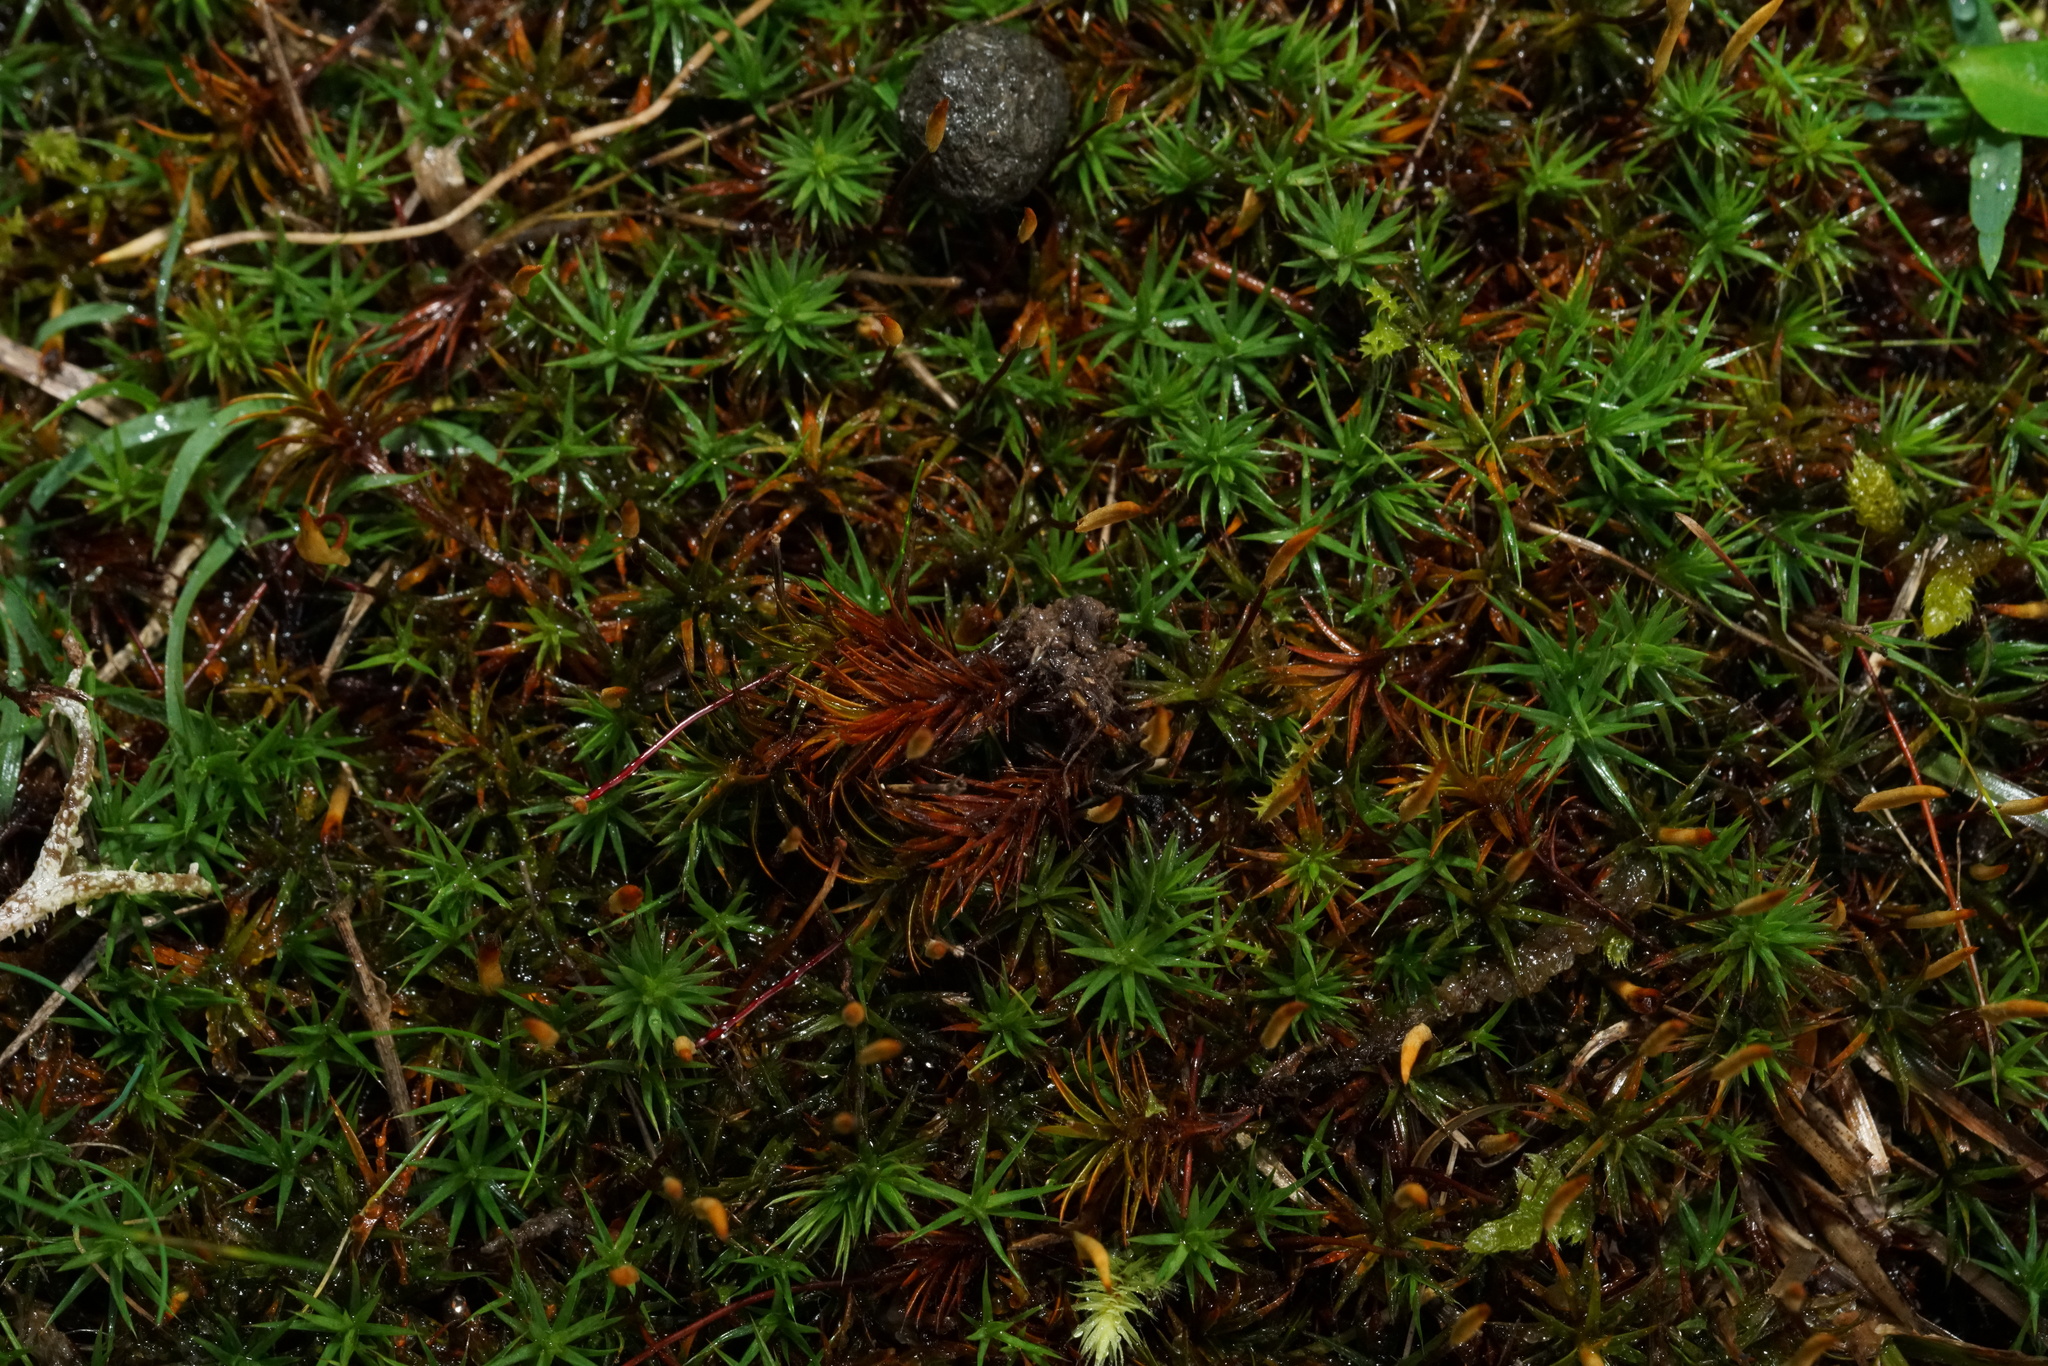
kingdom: Plantae
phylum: Bryophyta
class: Polytrichopsida
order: Polytrichales
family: Polytrichaceae
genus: Polytrichum
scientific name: Polytrichum juniperinum
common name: Juniper haircap moss
